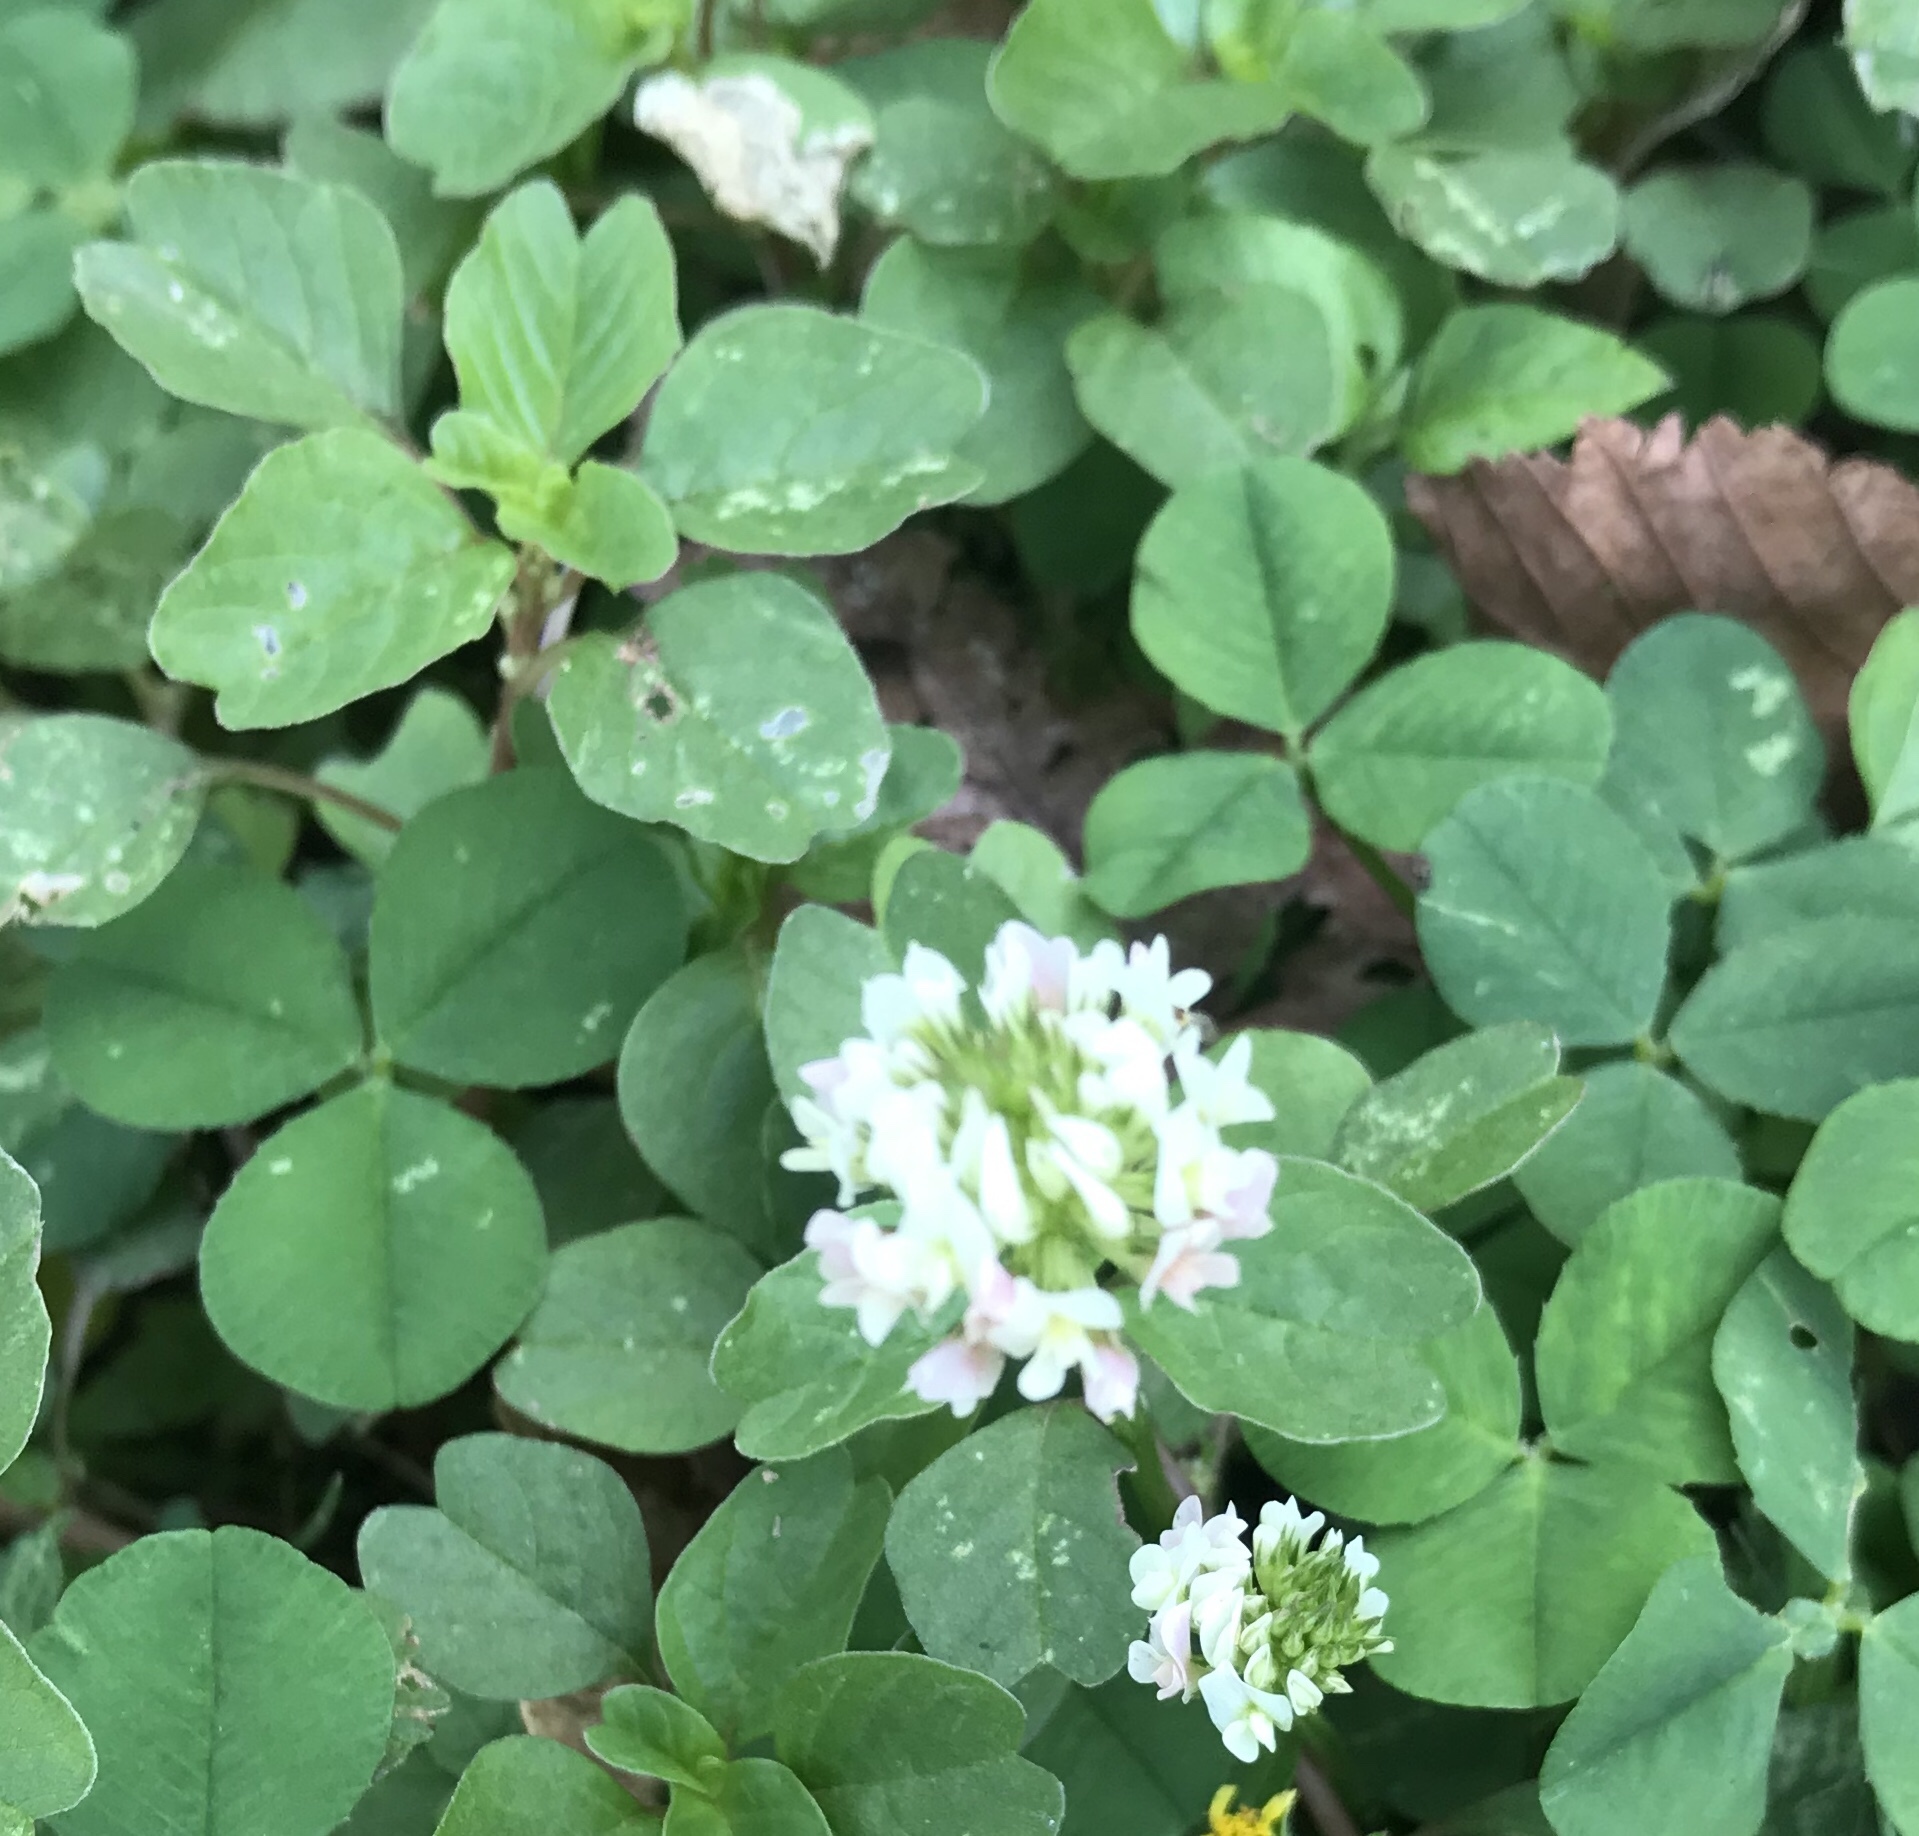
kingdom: Plantae
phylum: Tracheophyta
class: Magnoliopsida
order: Fabales
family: Fabaceae
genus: Trifolium
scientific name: Trifolium repens
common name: White clover
